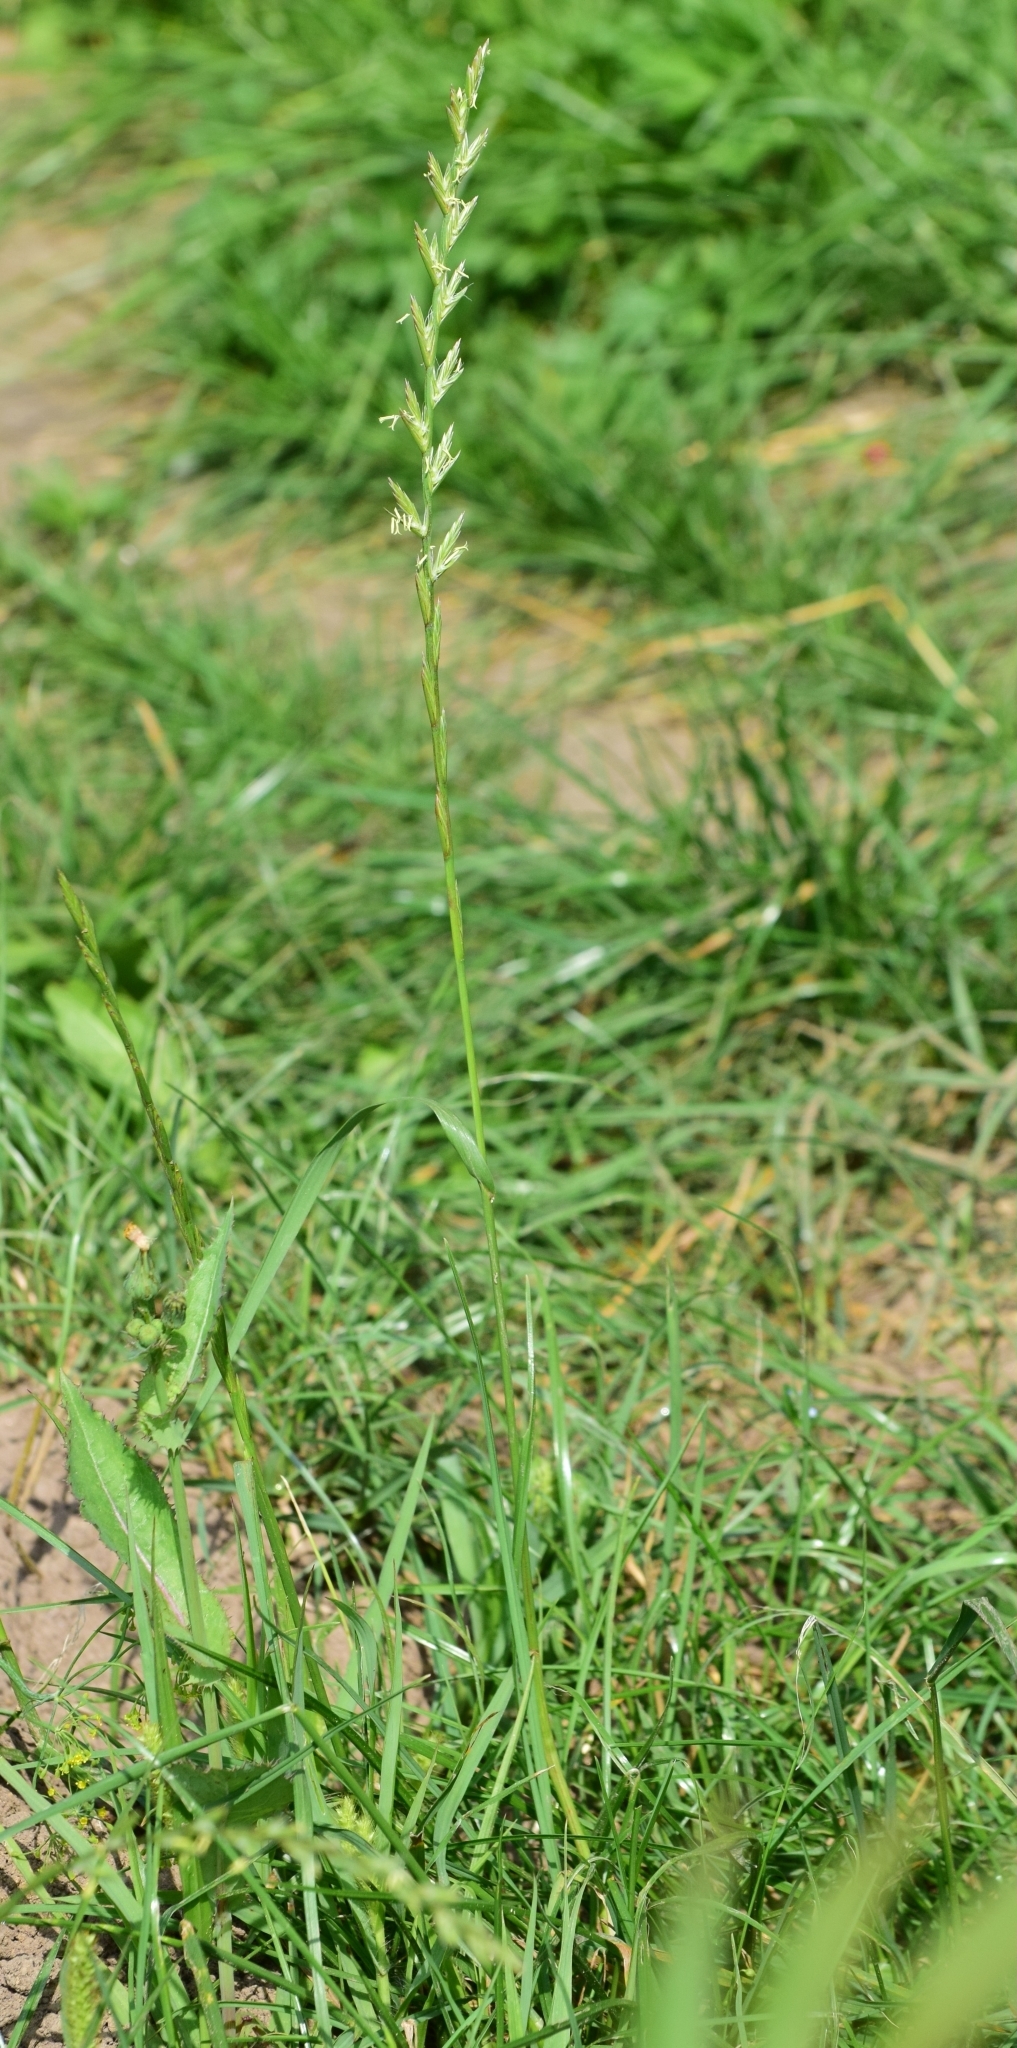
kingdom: Plantae
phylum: Tracheophyta
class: Liliopsida
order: Poales
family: Poaceae
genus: Lolium
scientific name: Lolium perenne
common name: Perennial ryegrass
